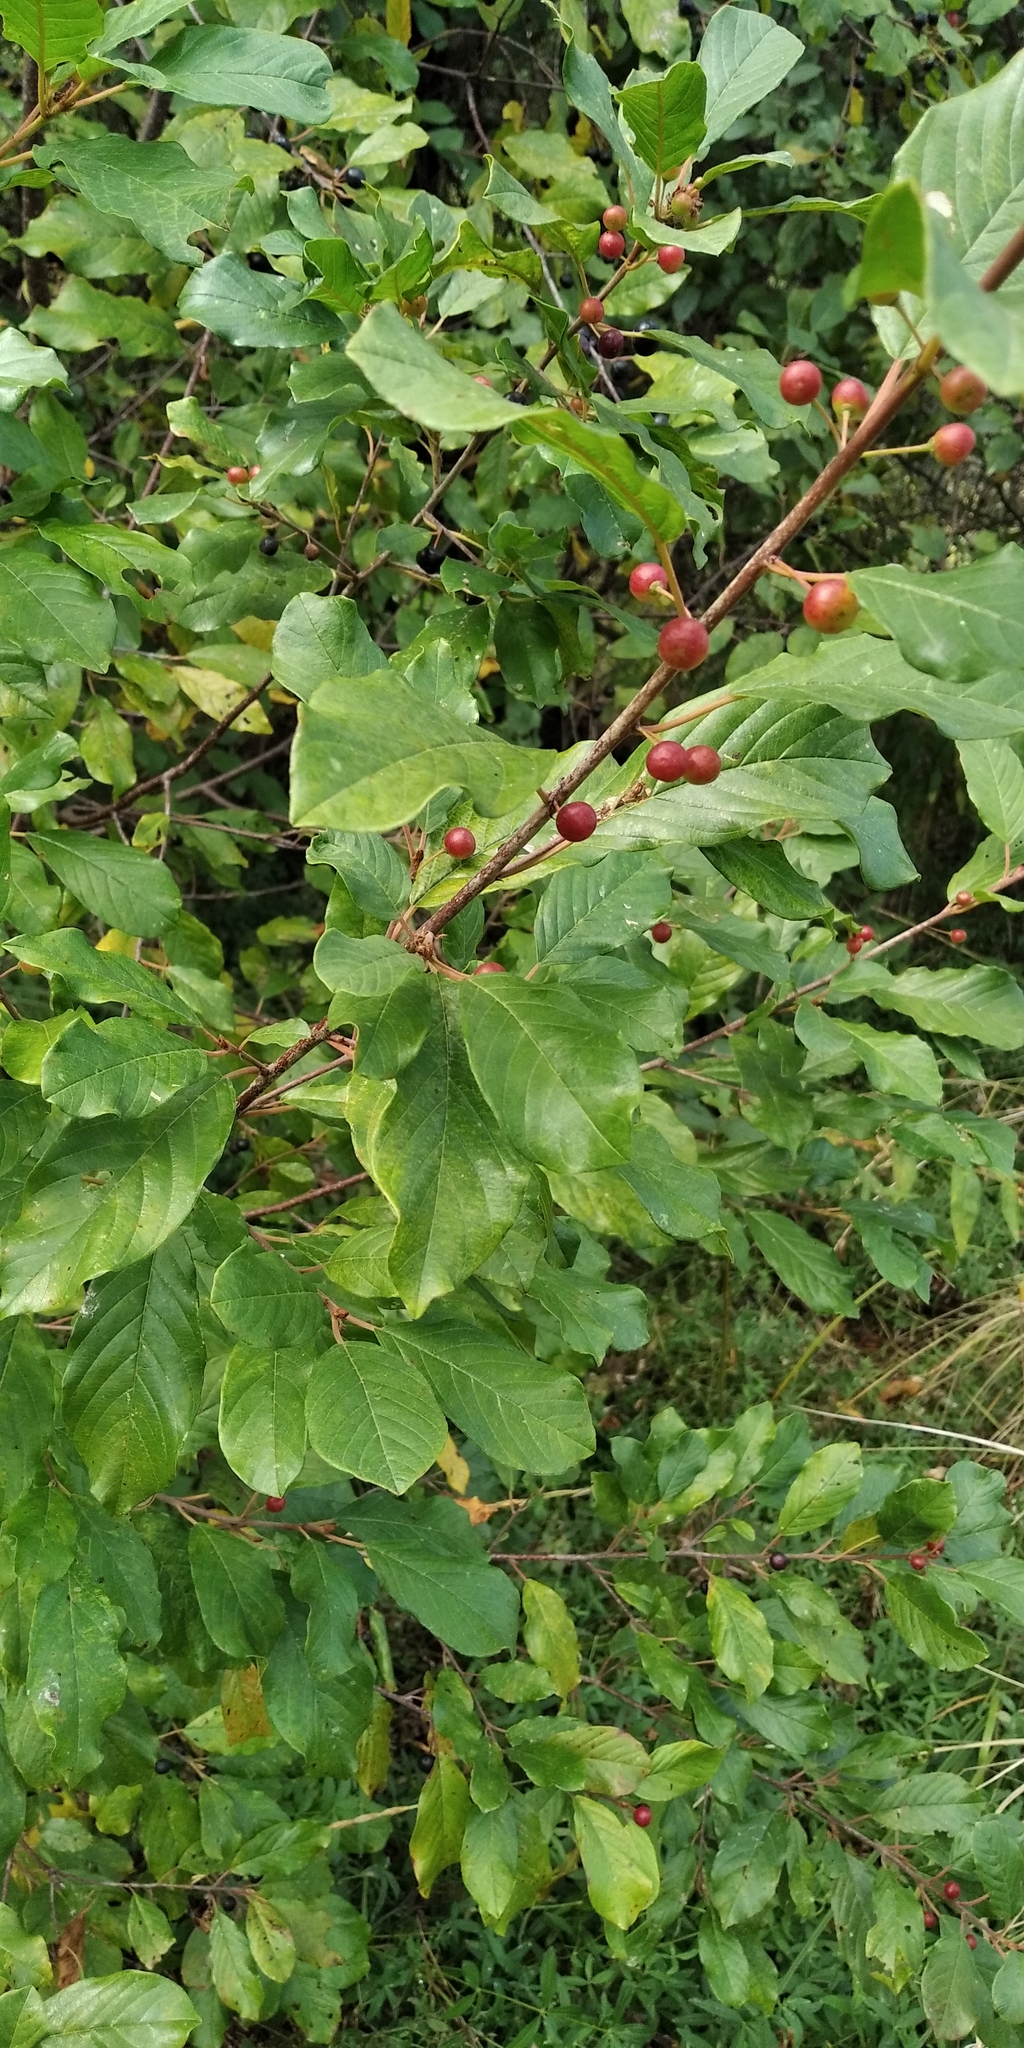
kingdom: Plantae
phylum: Tracheophyta
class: Magnoliopsida
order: Rosales
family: Rhamnaceae
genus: Frangula
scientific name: Frangula alnus
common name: Alder buckthorn
